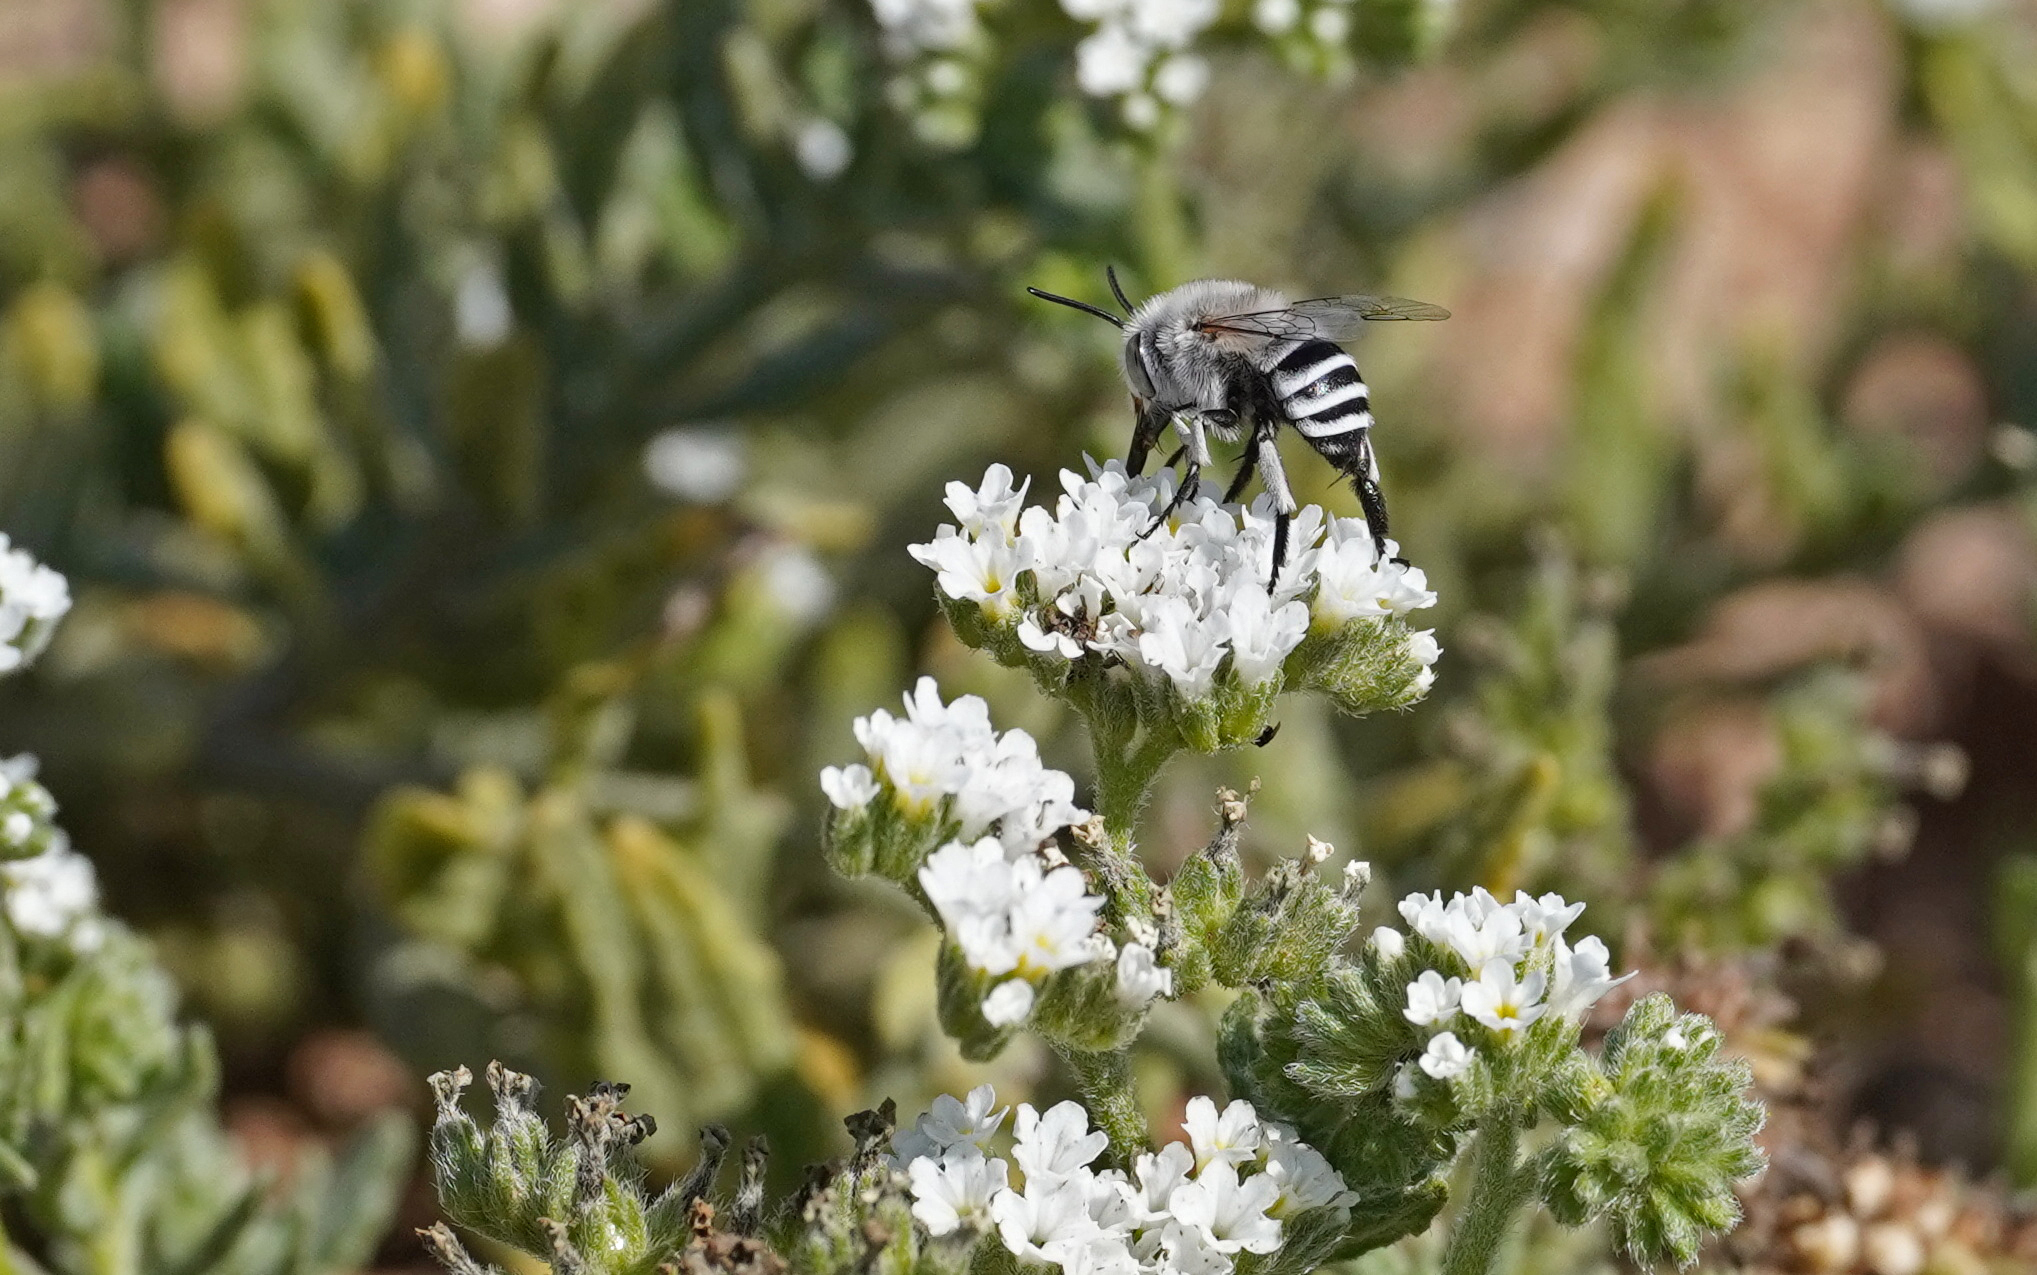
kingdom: Animalia
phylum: Arthropoda
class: Insecta
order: Hymenoptera
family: Apidae
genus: Amegilla
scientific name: Amegilla fasciata
